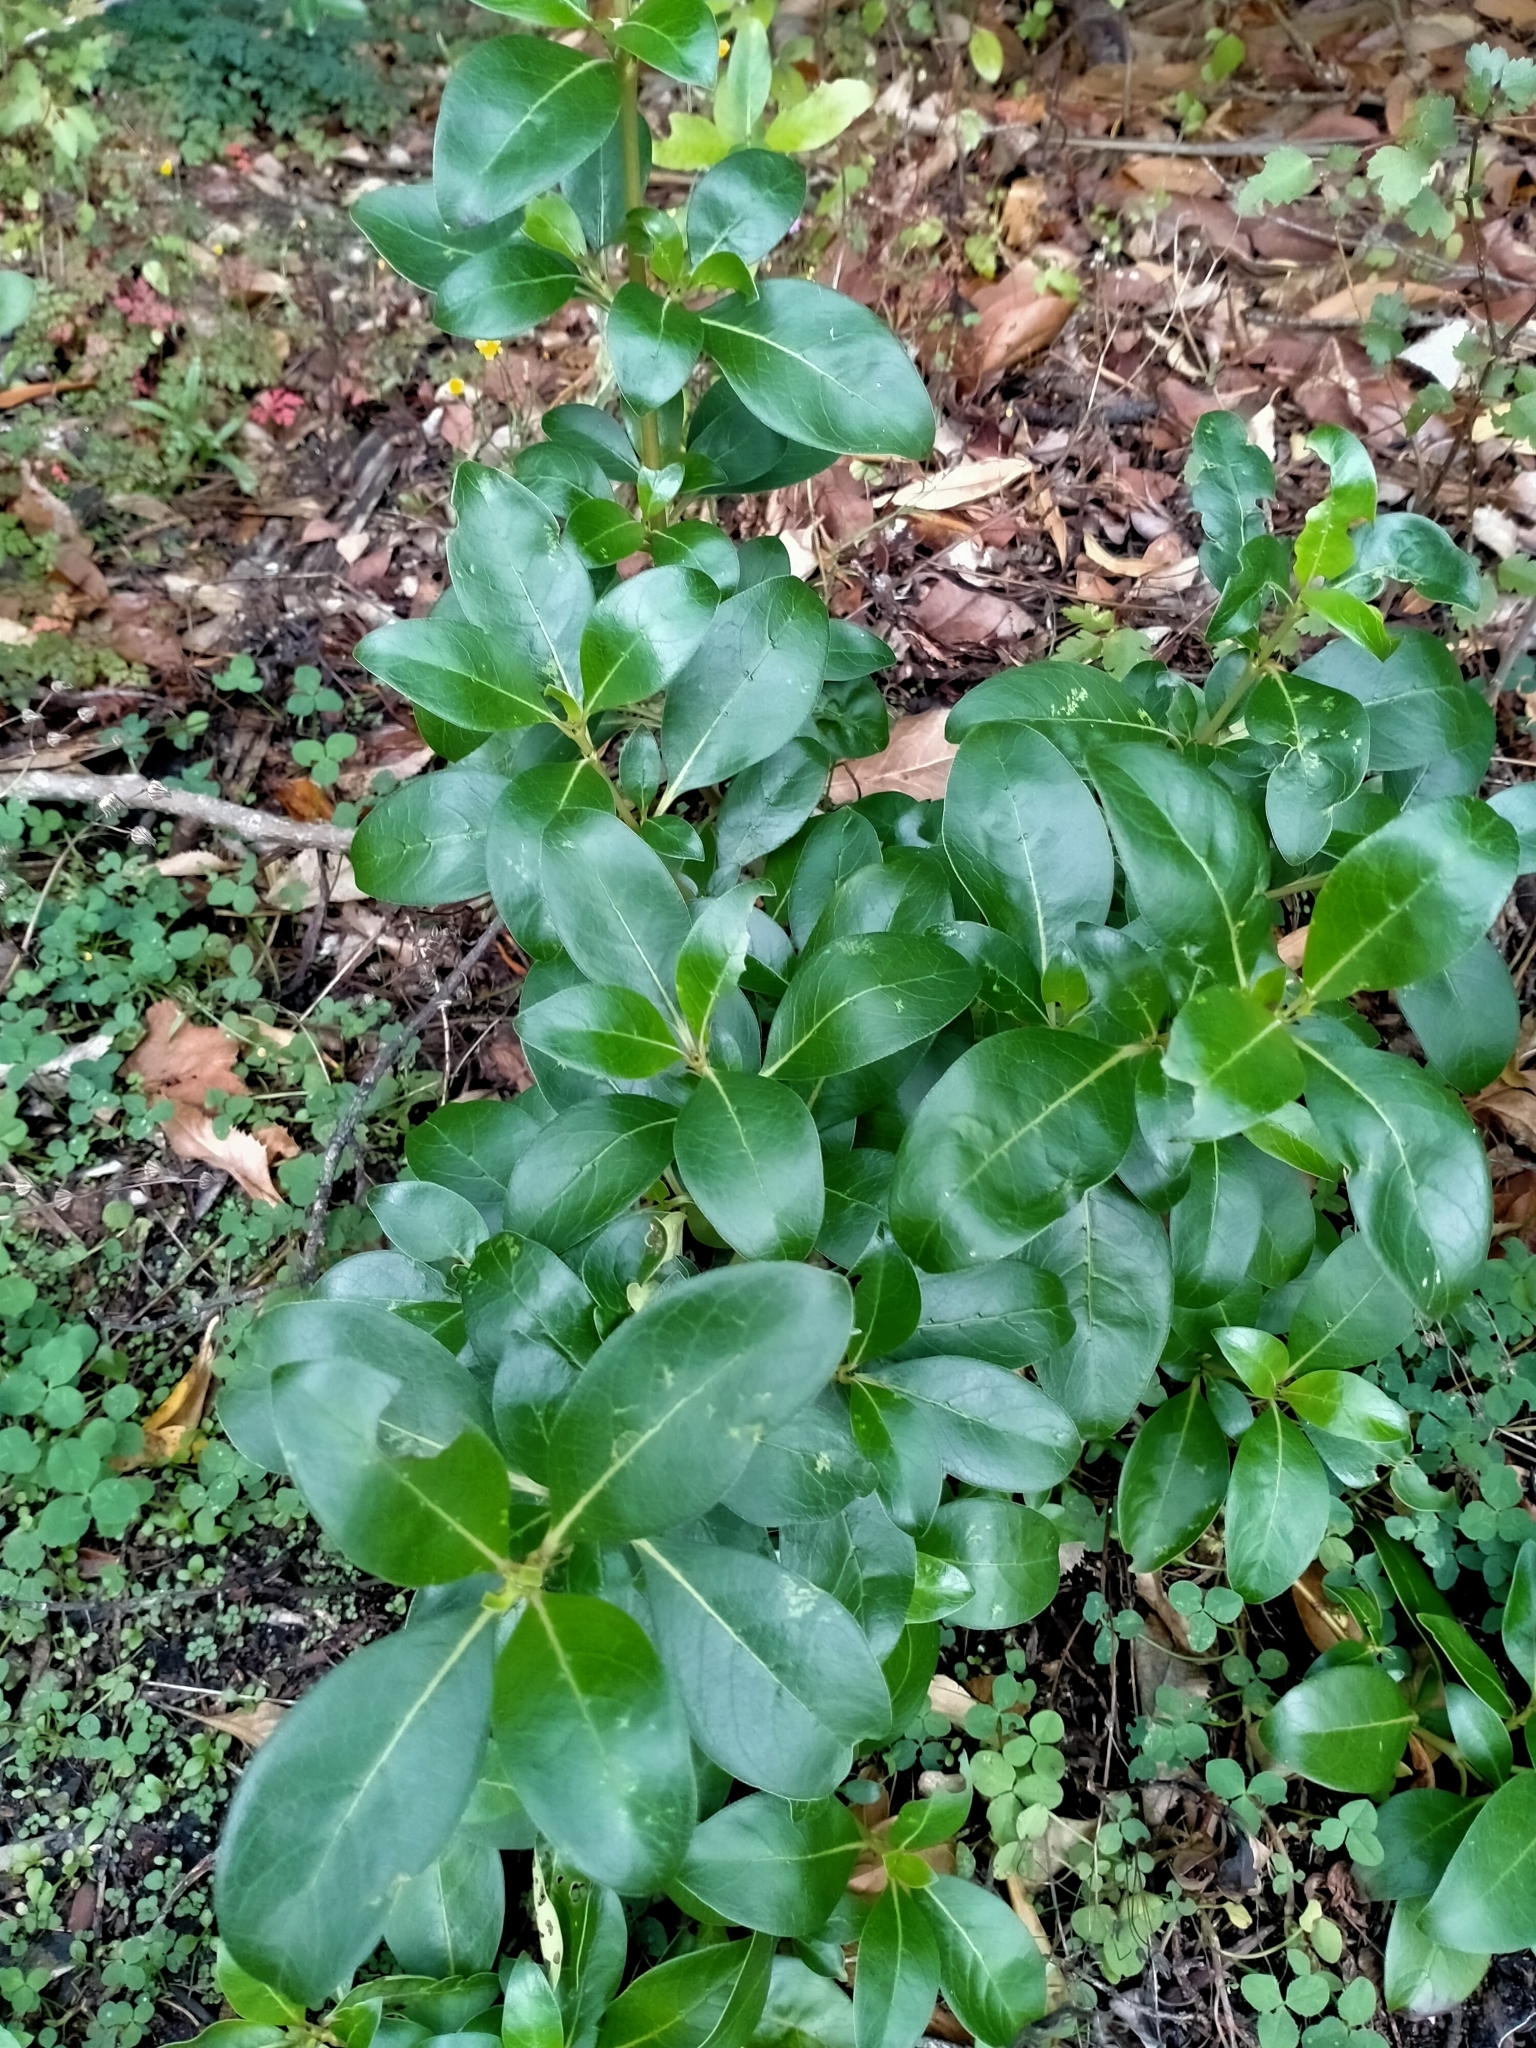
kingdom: Plantae
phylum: Tracheophyta
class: Magnoliopsida
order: Gentianales
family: Rubiaceae
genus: Coprosma
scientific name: Coprosma robusta
